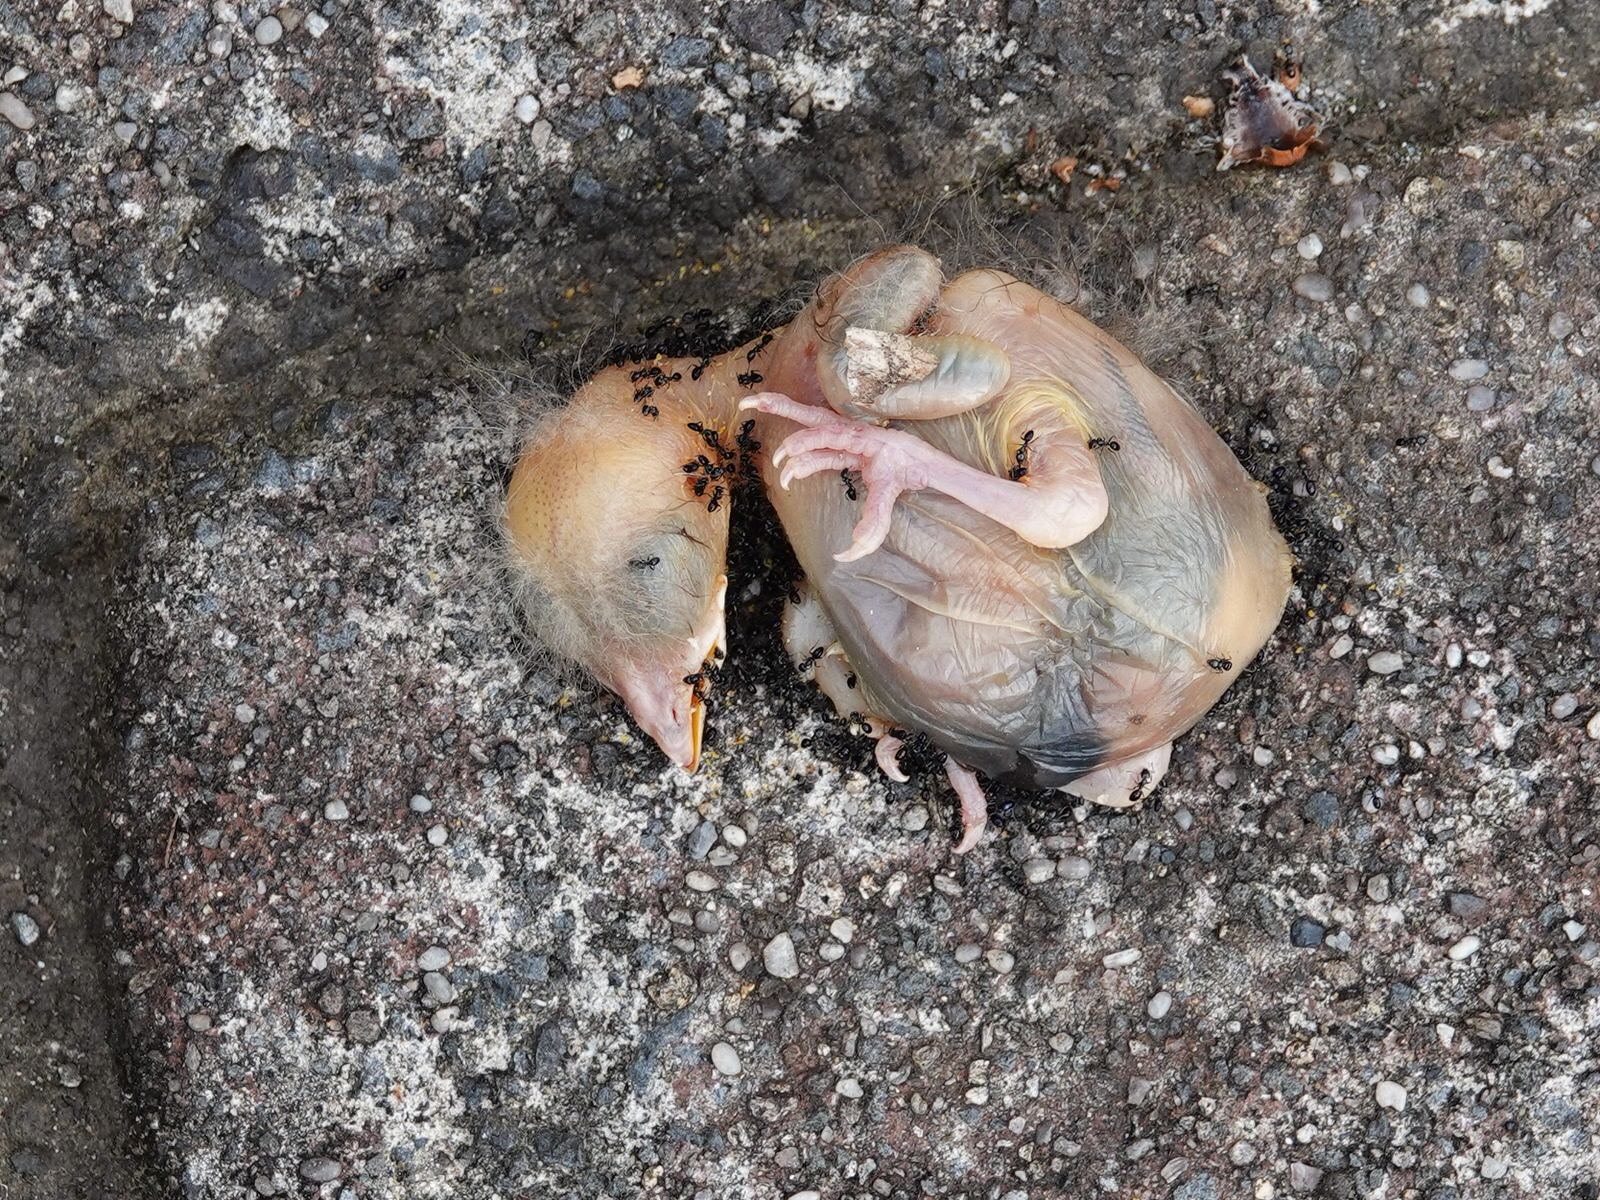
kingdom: Animalia
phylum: Chordata
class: Aves
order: Passeriformes
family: Turdidae
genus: Turdus
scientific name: Turdus merula
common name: Common blackbird
